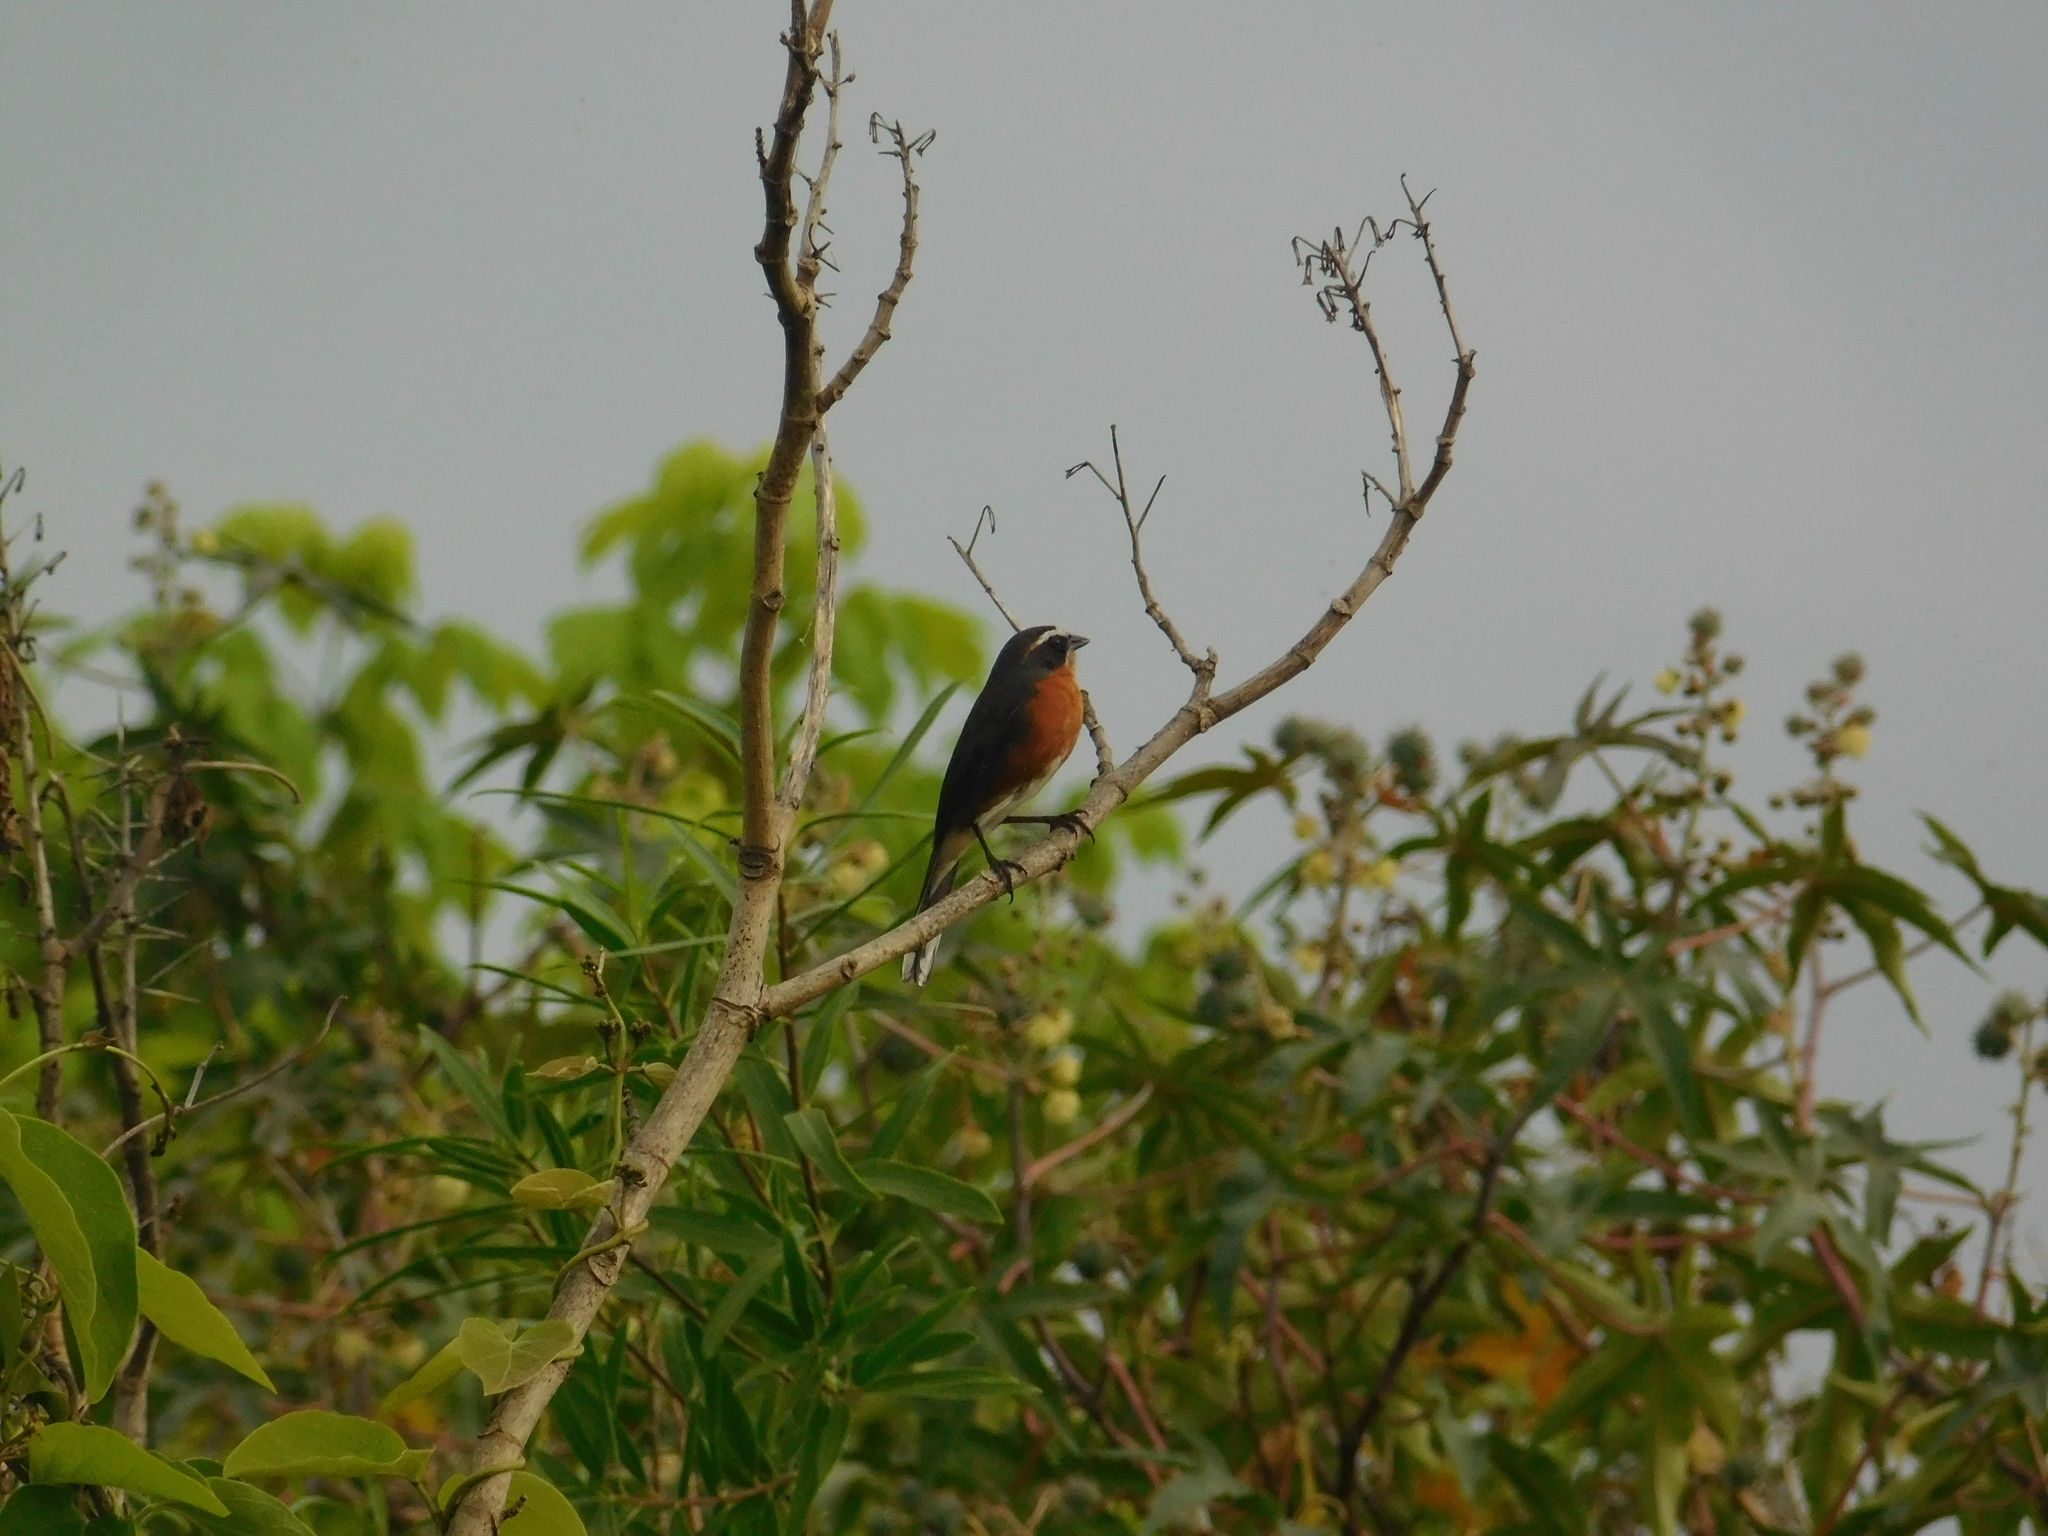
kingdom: Animalia
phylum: Chordata
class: Aves
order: Passeriformes
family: Thraupidae
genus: Poospiza
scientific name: Poospiza nigrorufa
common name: Black-and-rufous warbling finch
